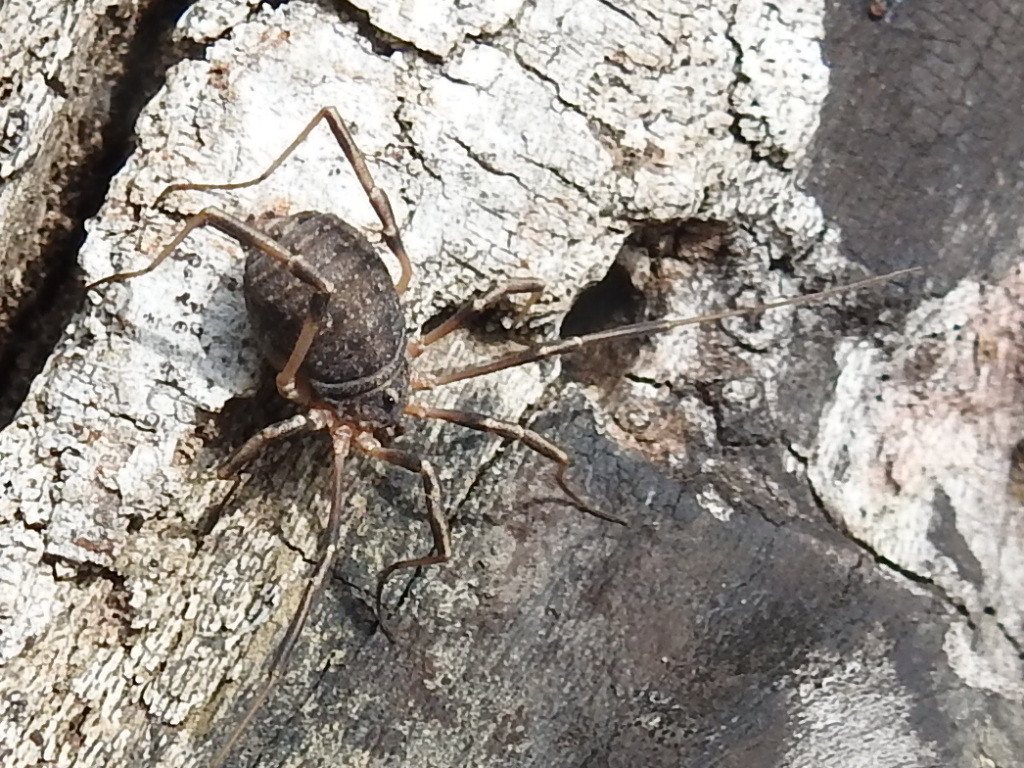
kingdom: Animalia
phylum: Arthropoda
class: Arachnida
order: Opiliones
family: Sclerosomatidae
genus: Eumesosoma
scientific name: Eumesosoma roeweri
